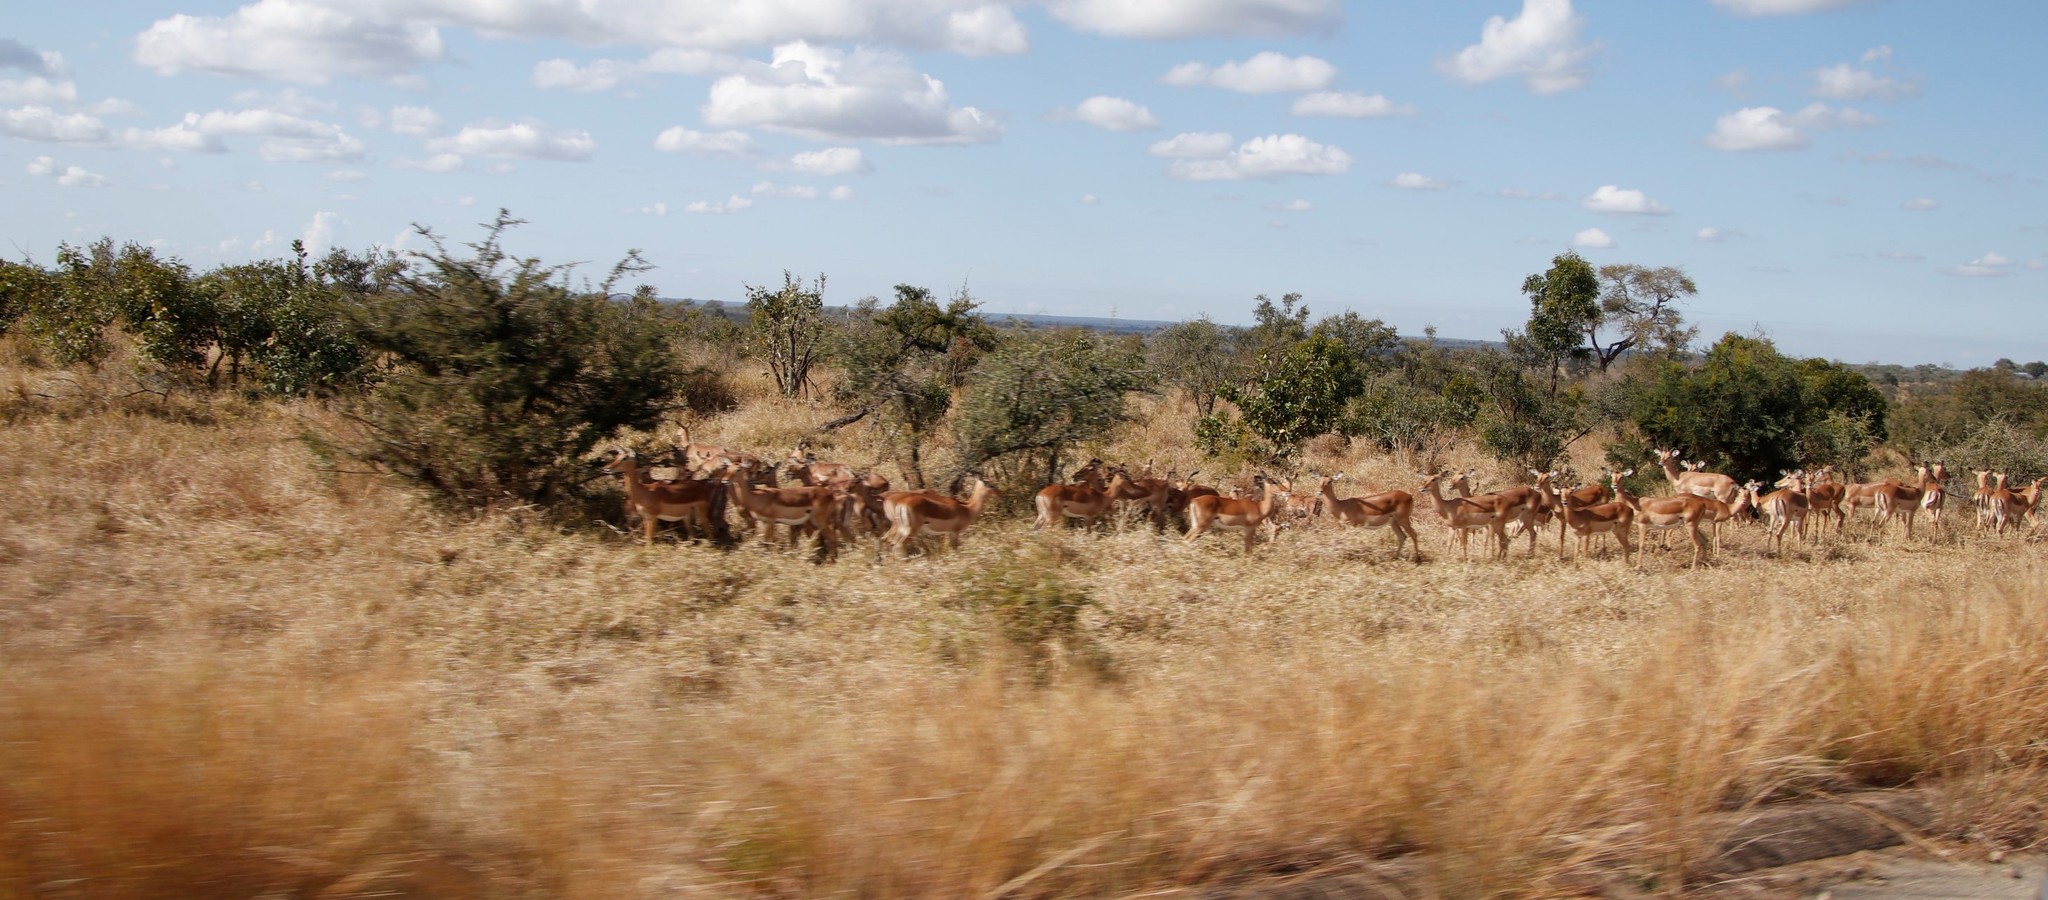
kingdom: Animalia
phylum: Chordata
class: Mammalia
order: Artiodactyla
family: Bovidae
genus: Aepyceros
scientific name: Aepyceros melampus
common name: Impala
